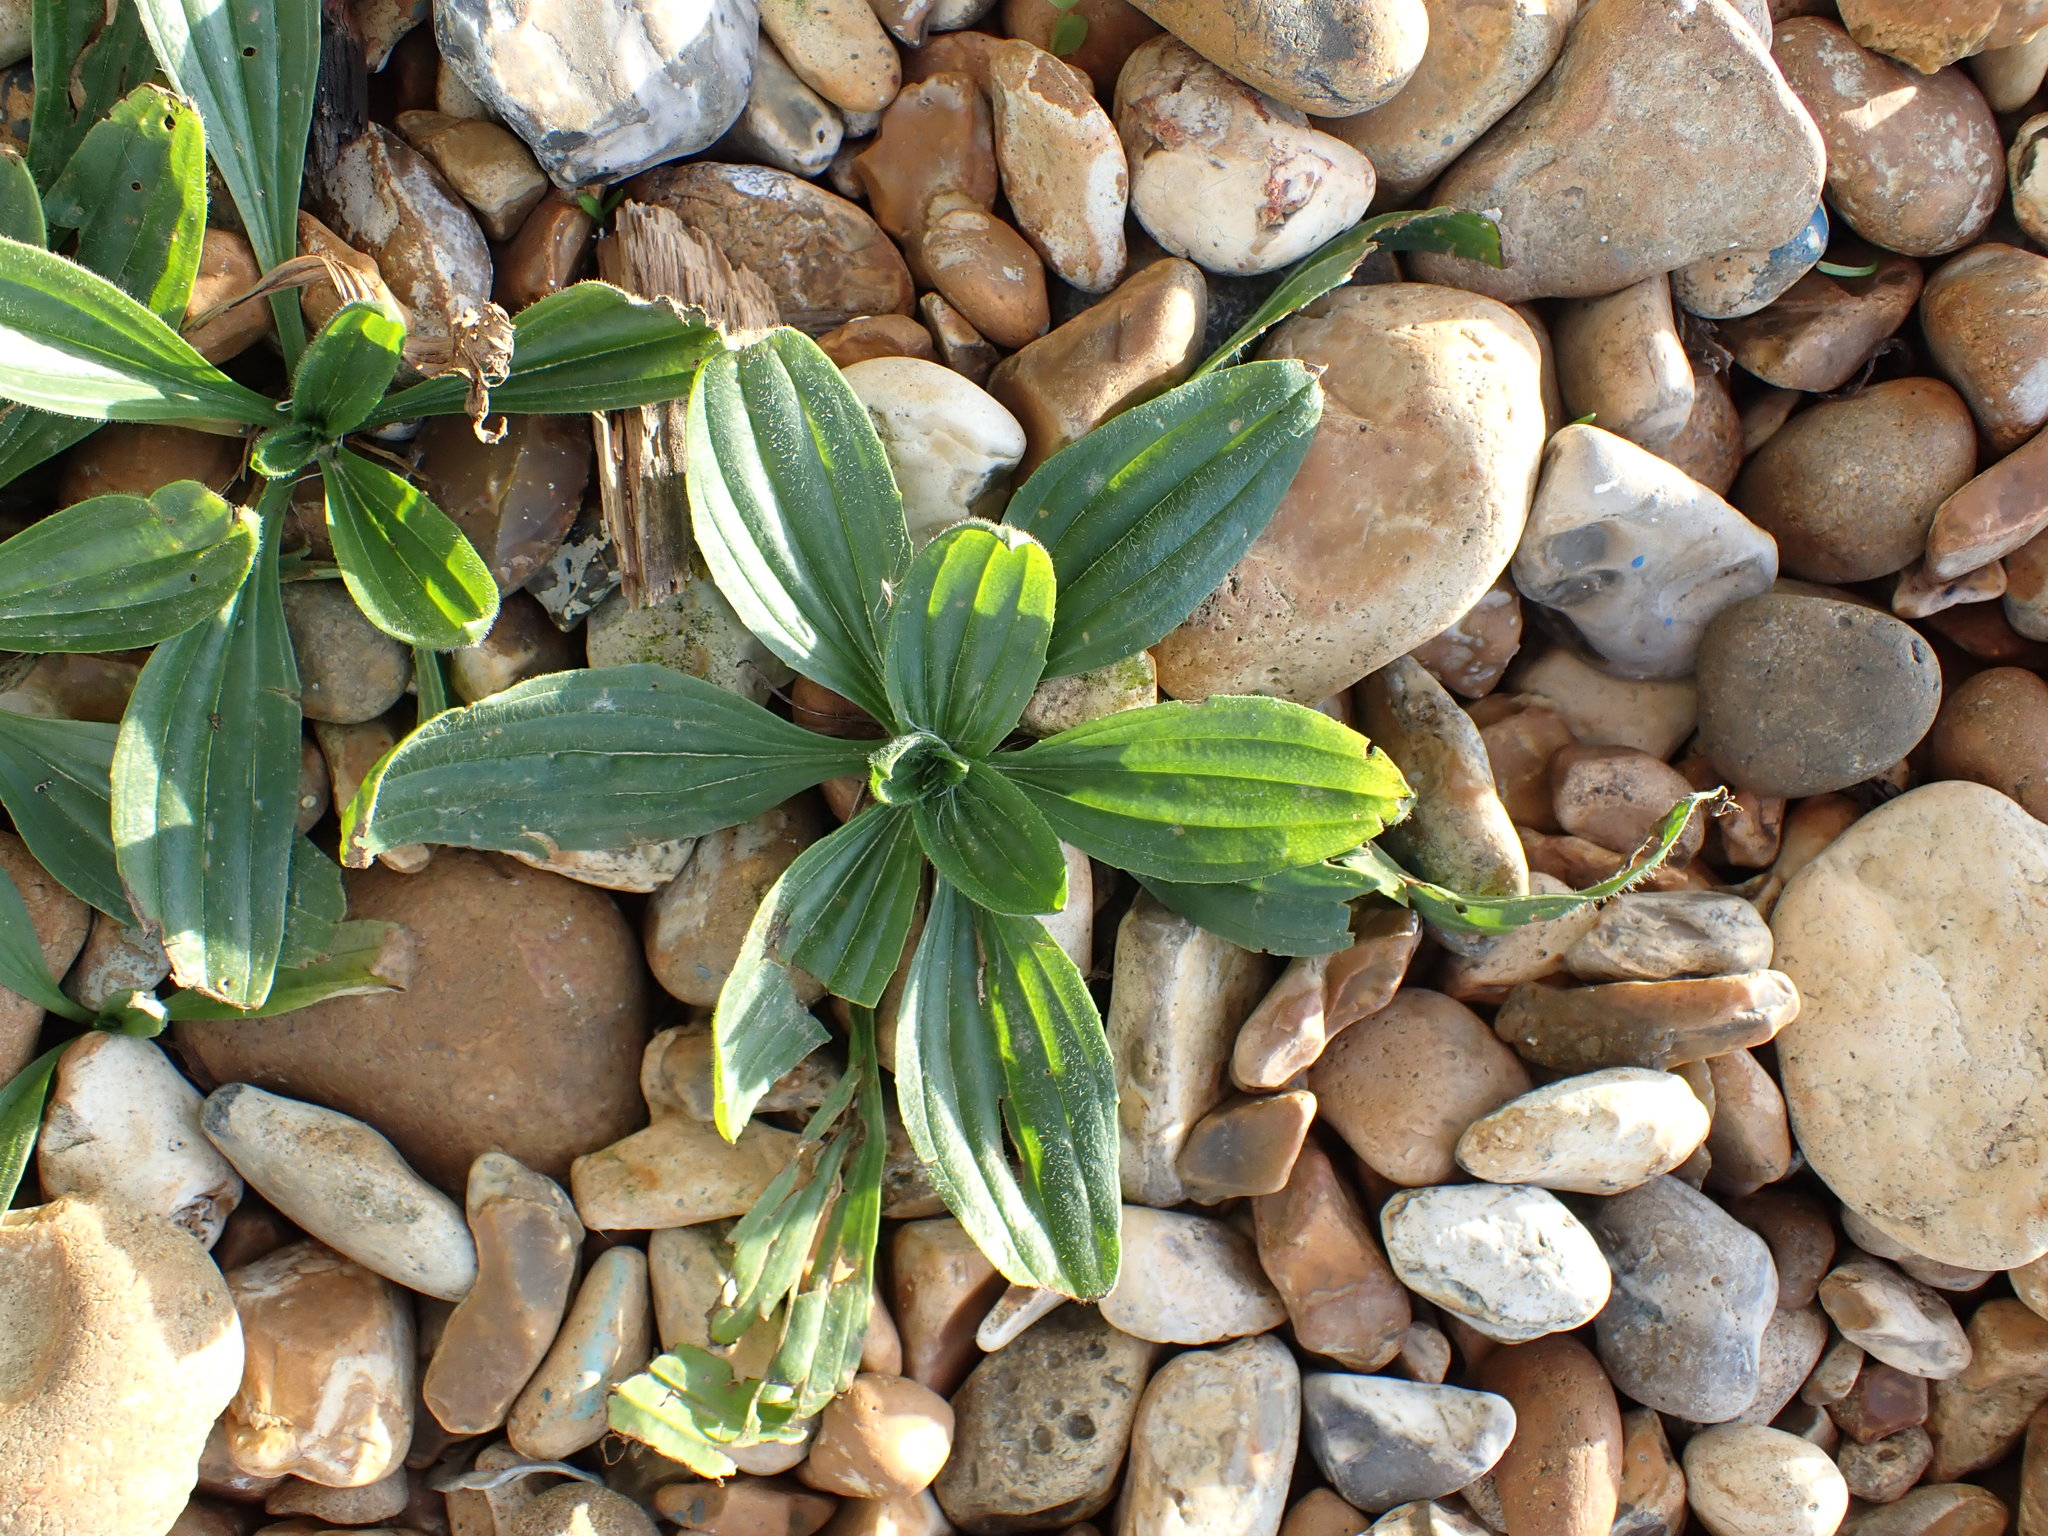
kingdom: Plantae
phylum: Tracheophyta
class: Magnoliopsida
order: Lamiales
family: Plantaginaceae
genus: Plantago
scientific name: Plantago lanceolata
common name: Ribwort plantain
